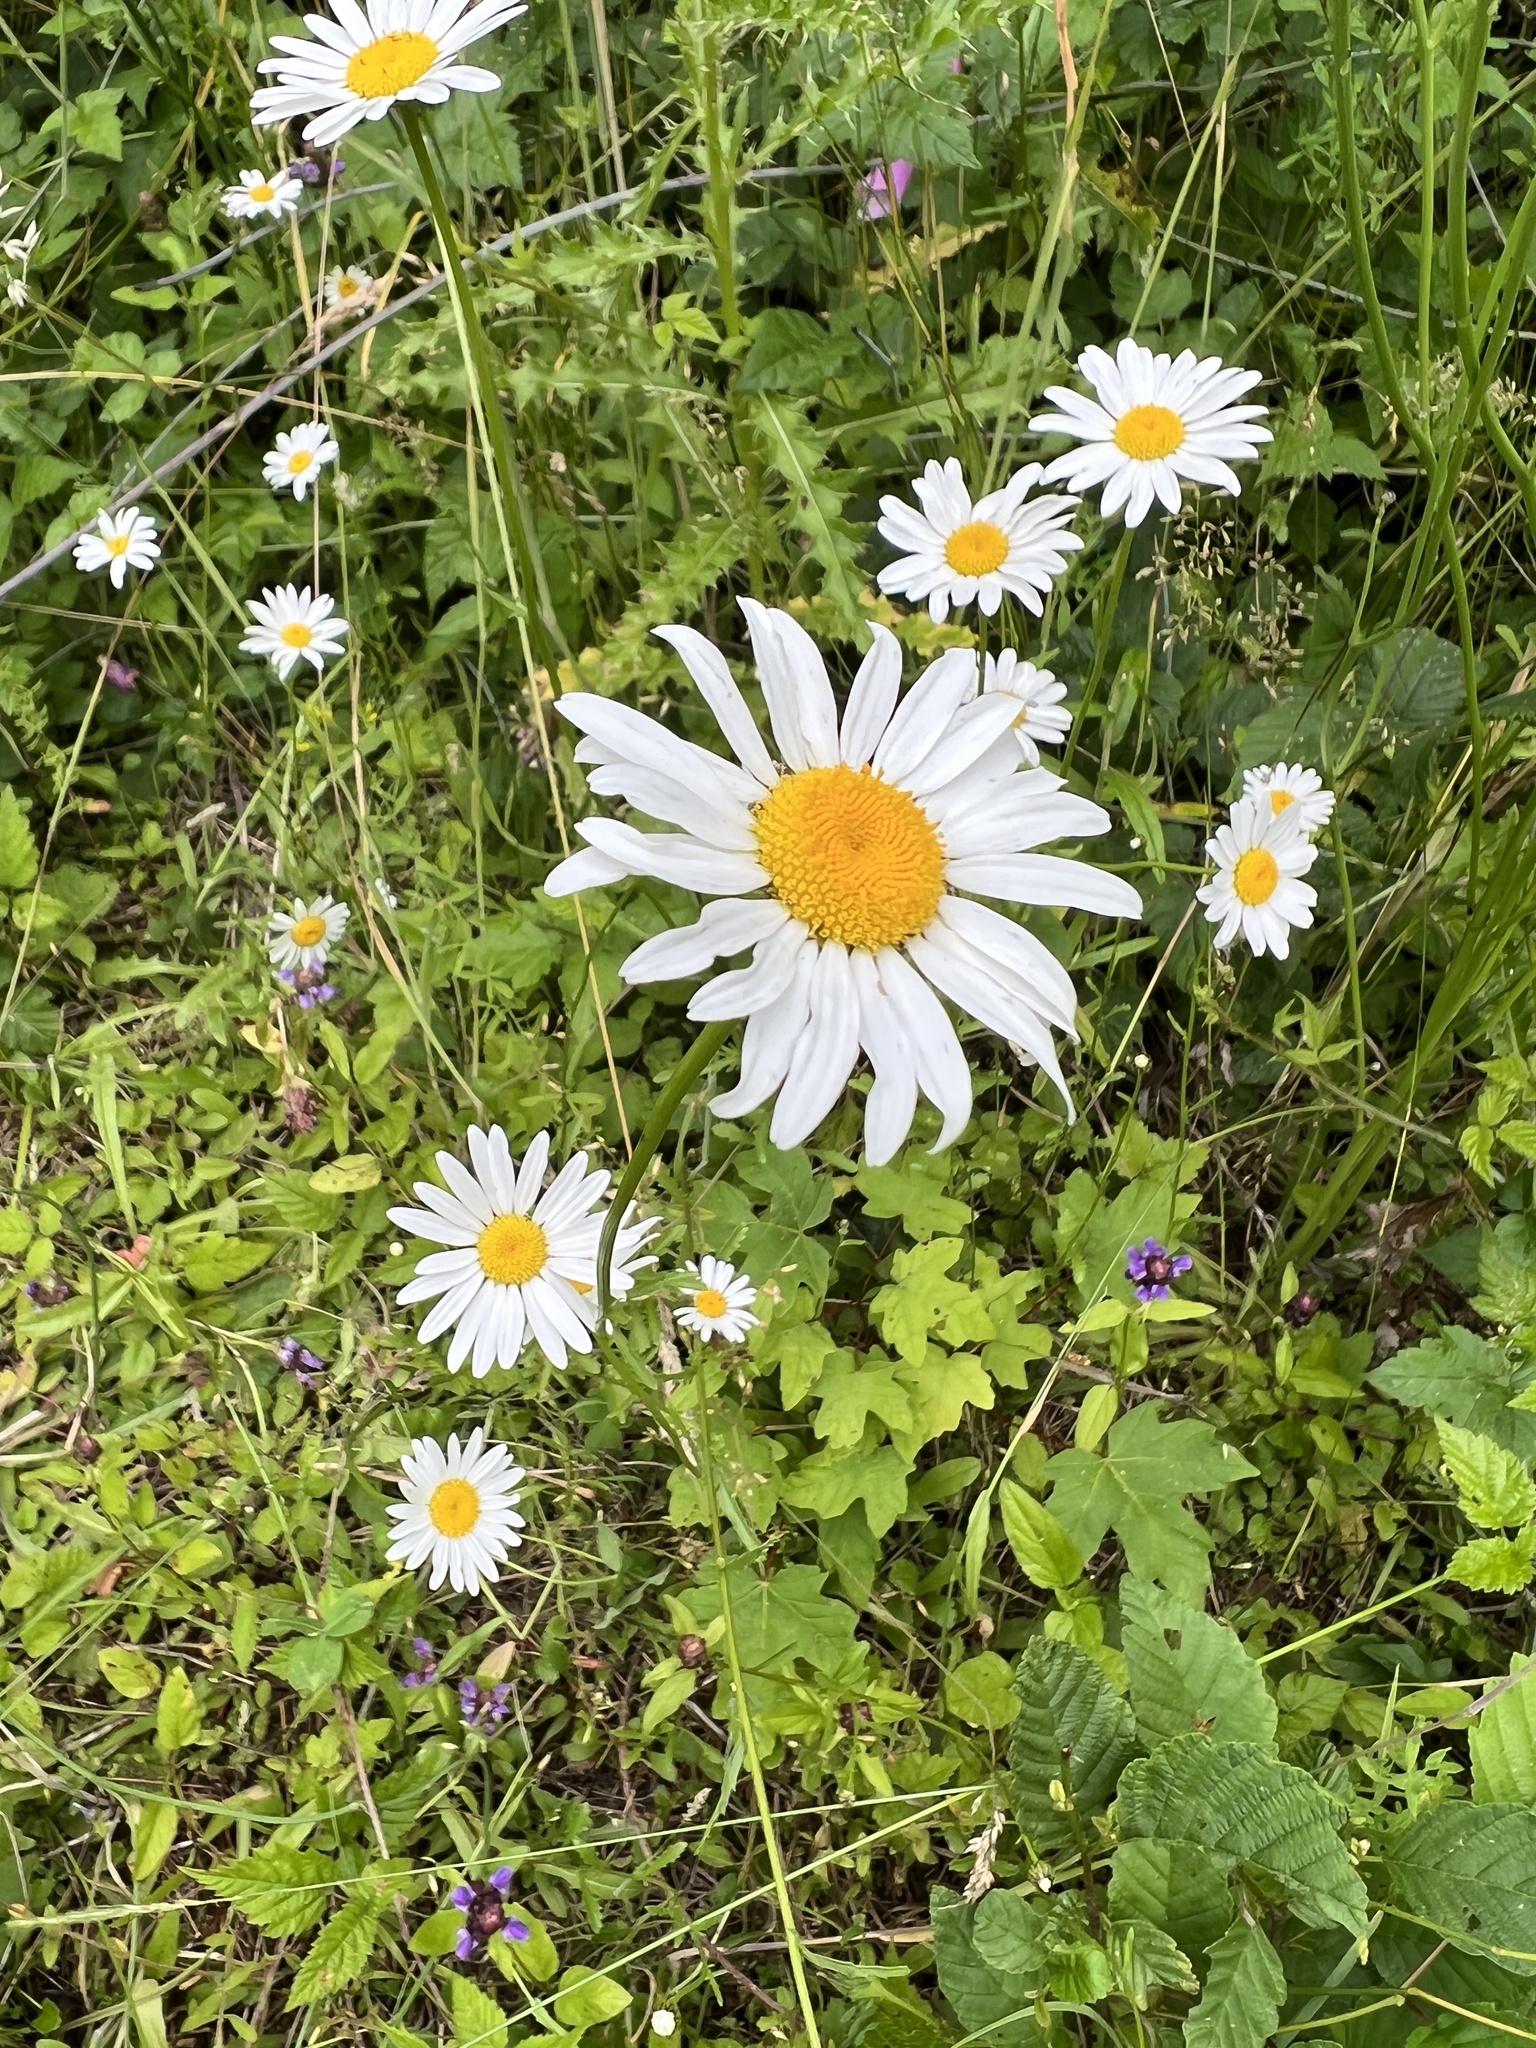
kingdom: Plantae
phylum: Tracheophyta
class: Magnoliopsida
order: Asterales
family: Asteraceae
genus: Leucanthemum
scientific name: Leucanthemum vulgare
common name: Oxeye daisy
